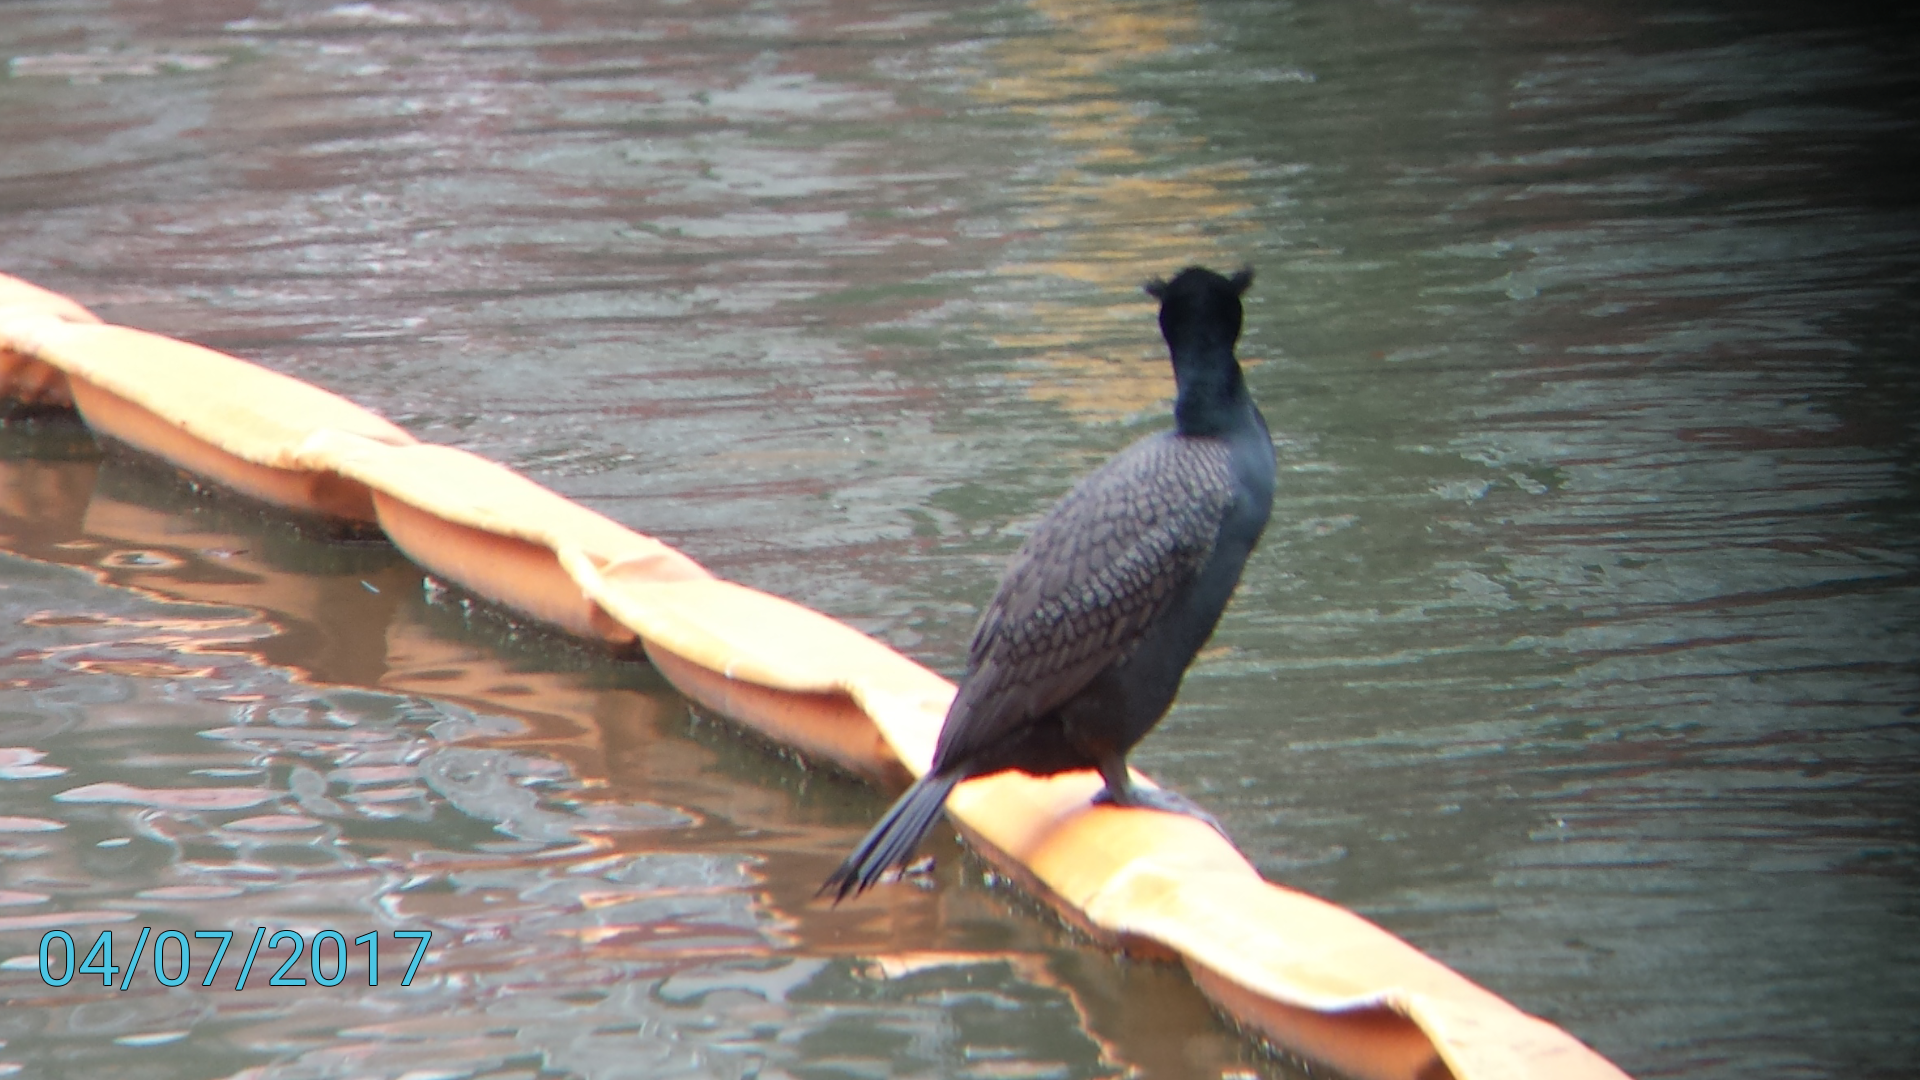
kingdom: Animalia
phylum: Chordata
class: Aves
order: Suliformes
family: Phalacrocoracidae
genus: Phalacrocorax
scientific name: Phalacrocorax auritus
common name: Double-crested cormorant
